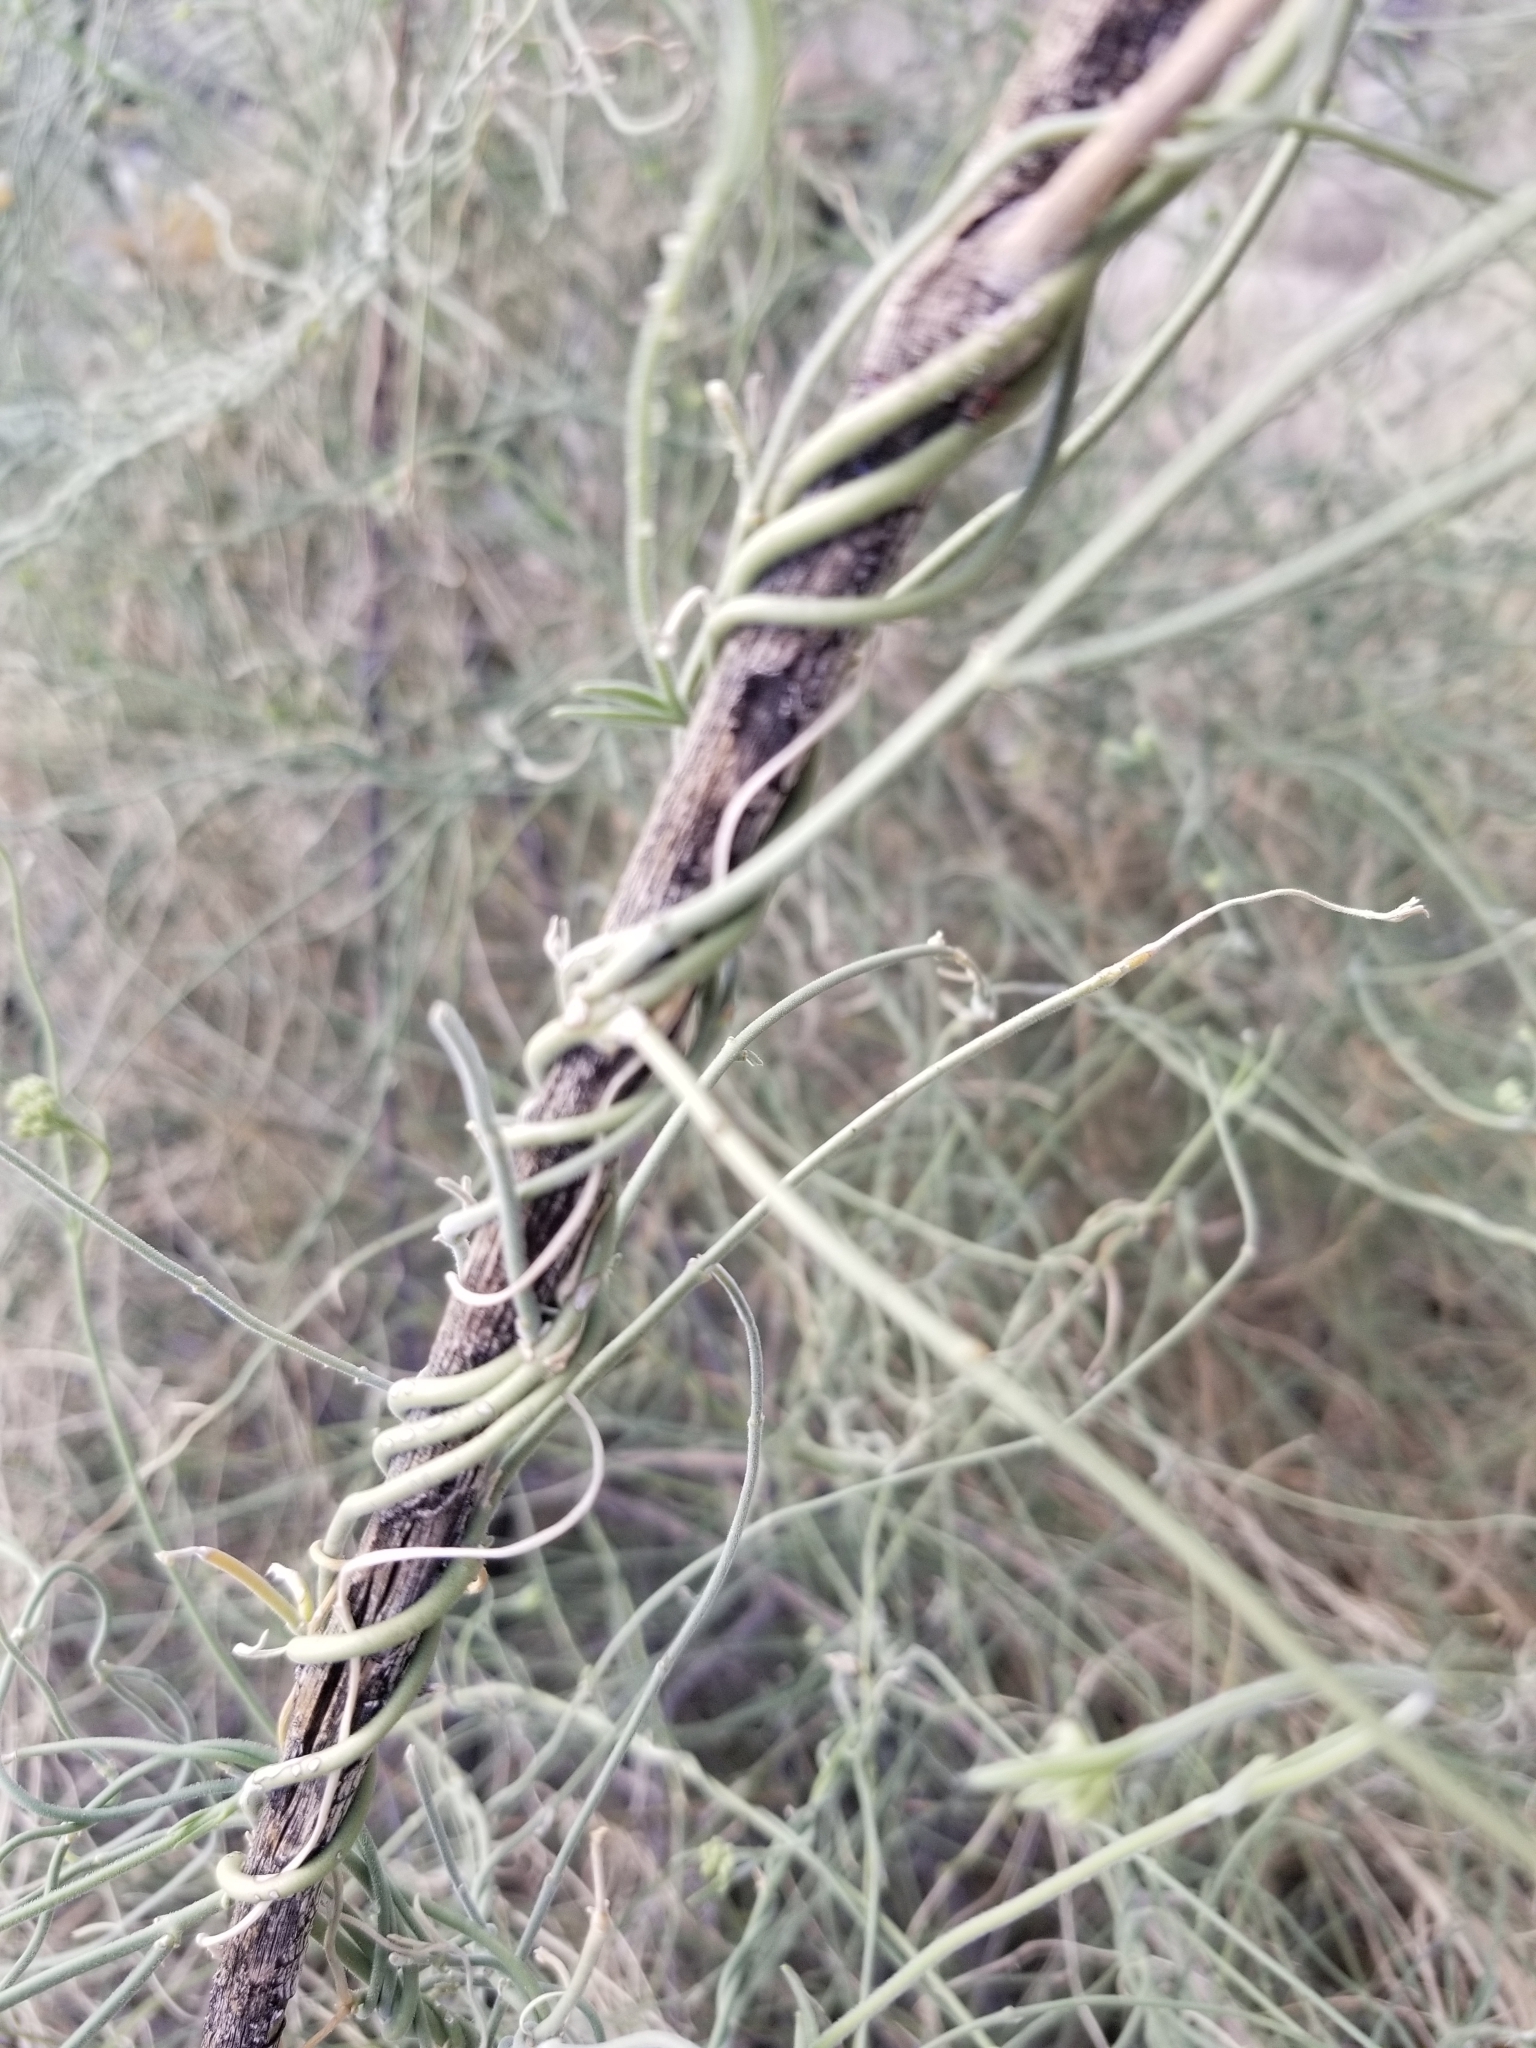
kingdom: Plantae
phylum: Tracheophyta
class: Magnoliopsida
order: Gentianales
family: Apocynaceae
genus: Funastrum
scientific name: Funastrum hirtellum
